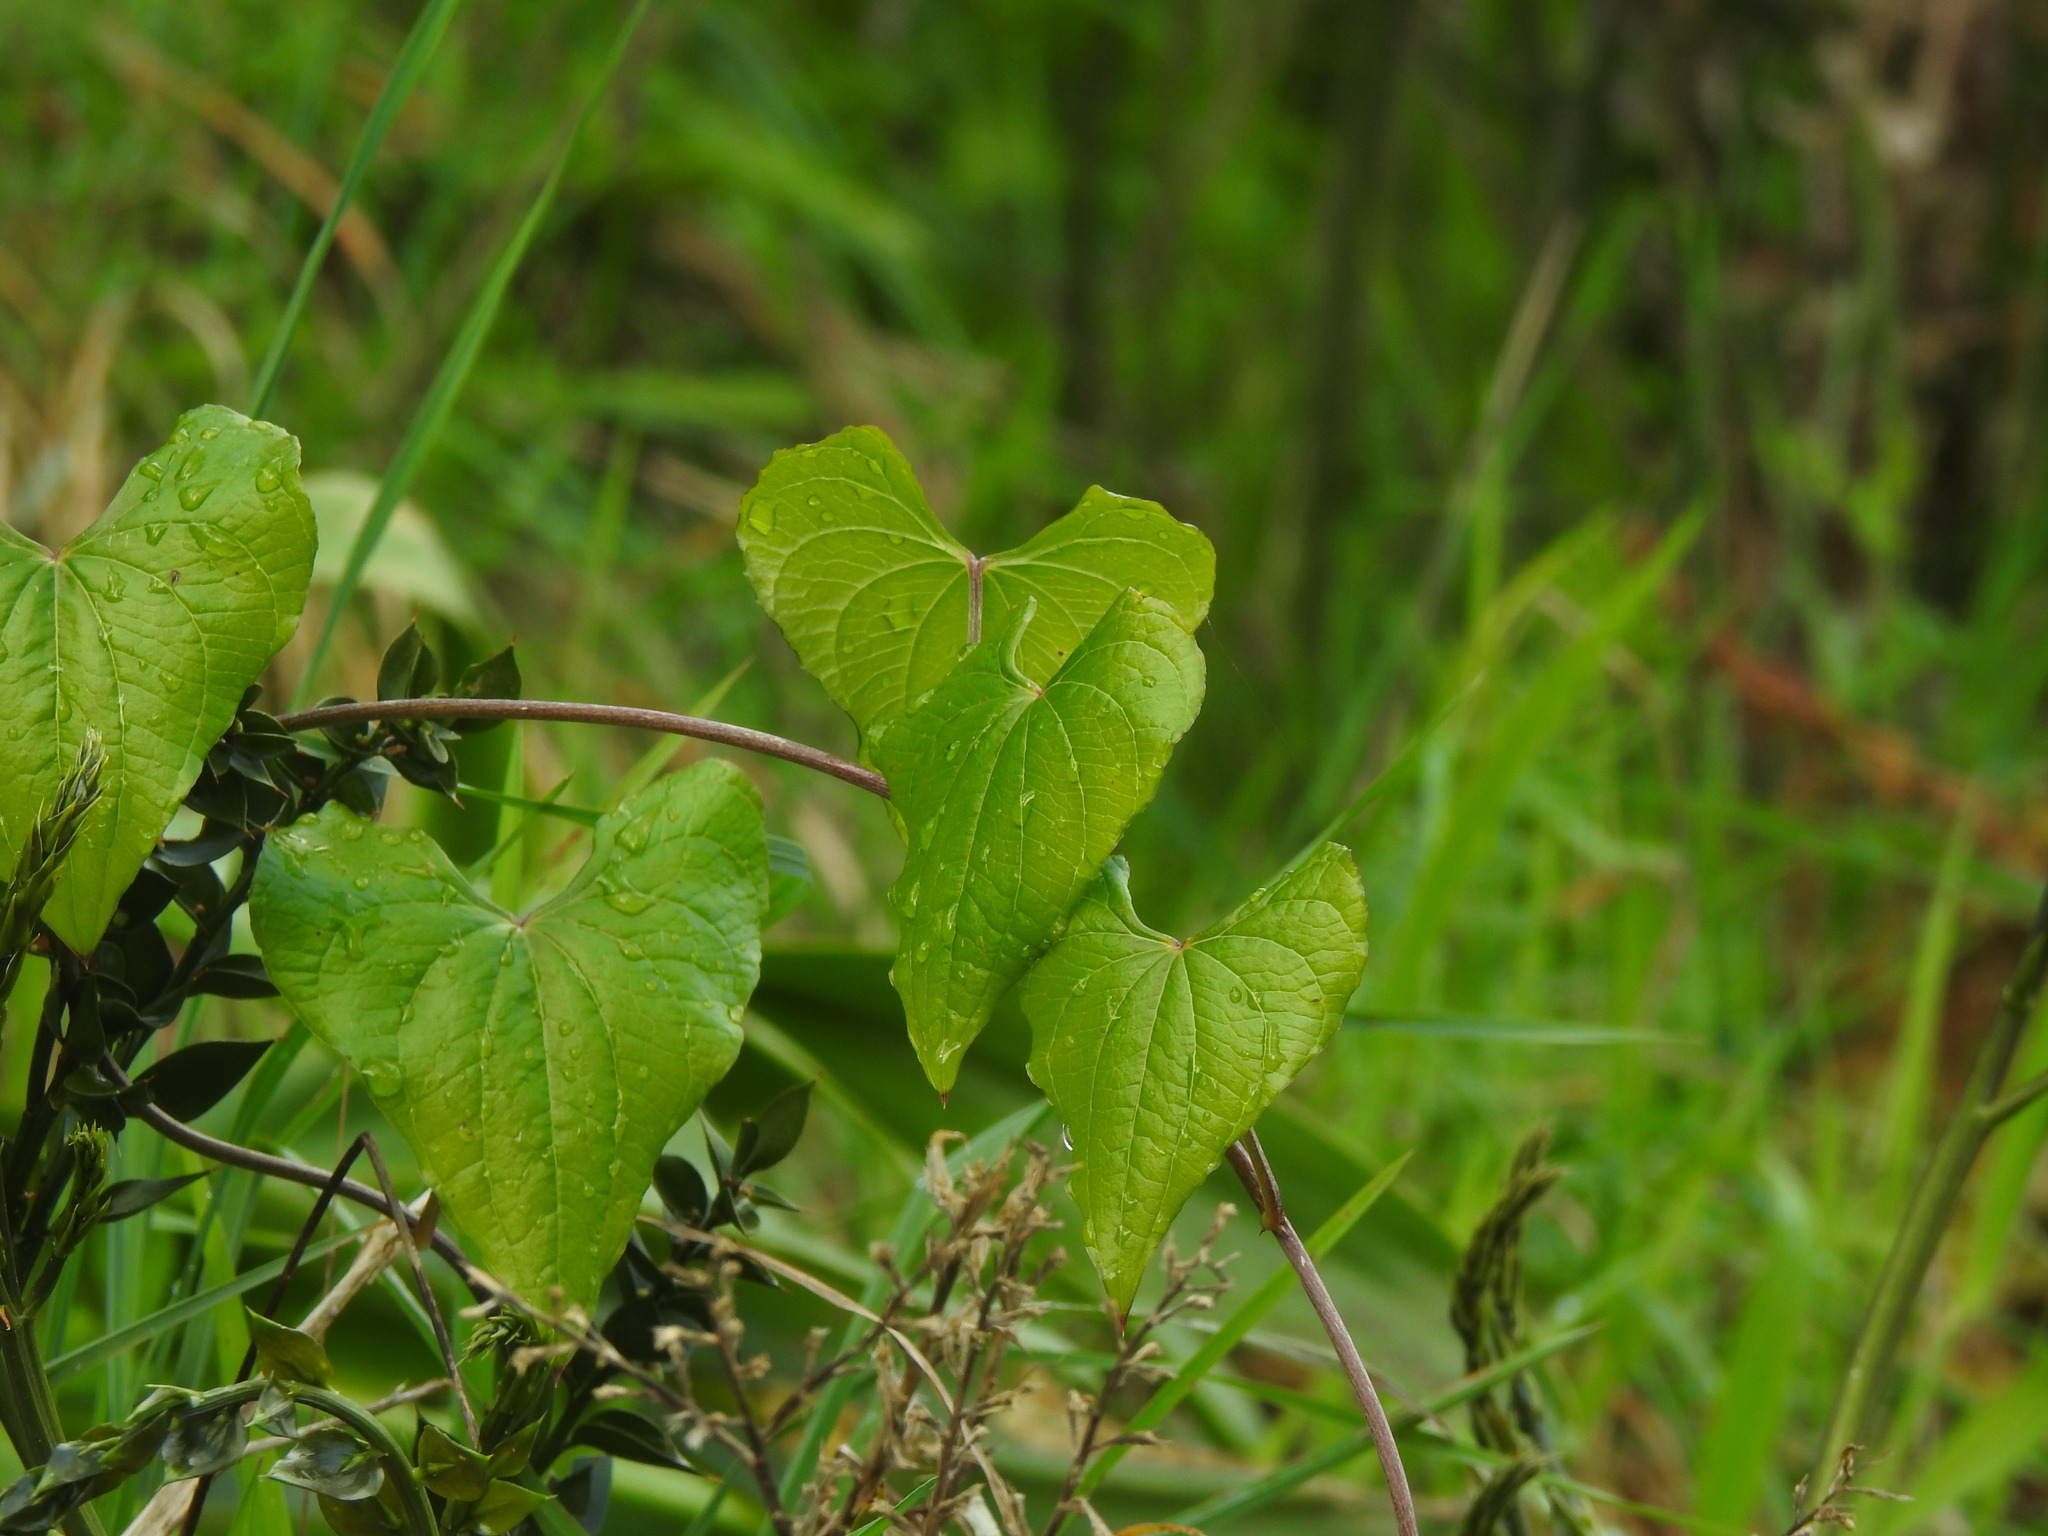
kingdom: Plantae
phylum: Tracheophyta
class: Liliopsida
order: Dioscoreales
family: Dioscoreaceae
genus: Dioscorea
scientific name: Dioscorea communis
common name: Black-bindweed
